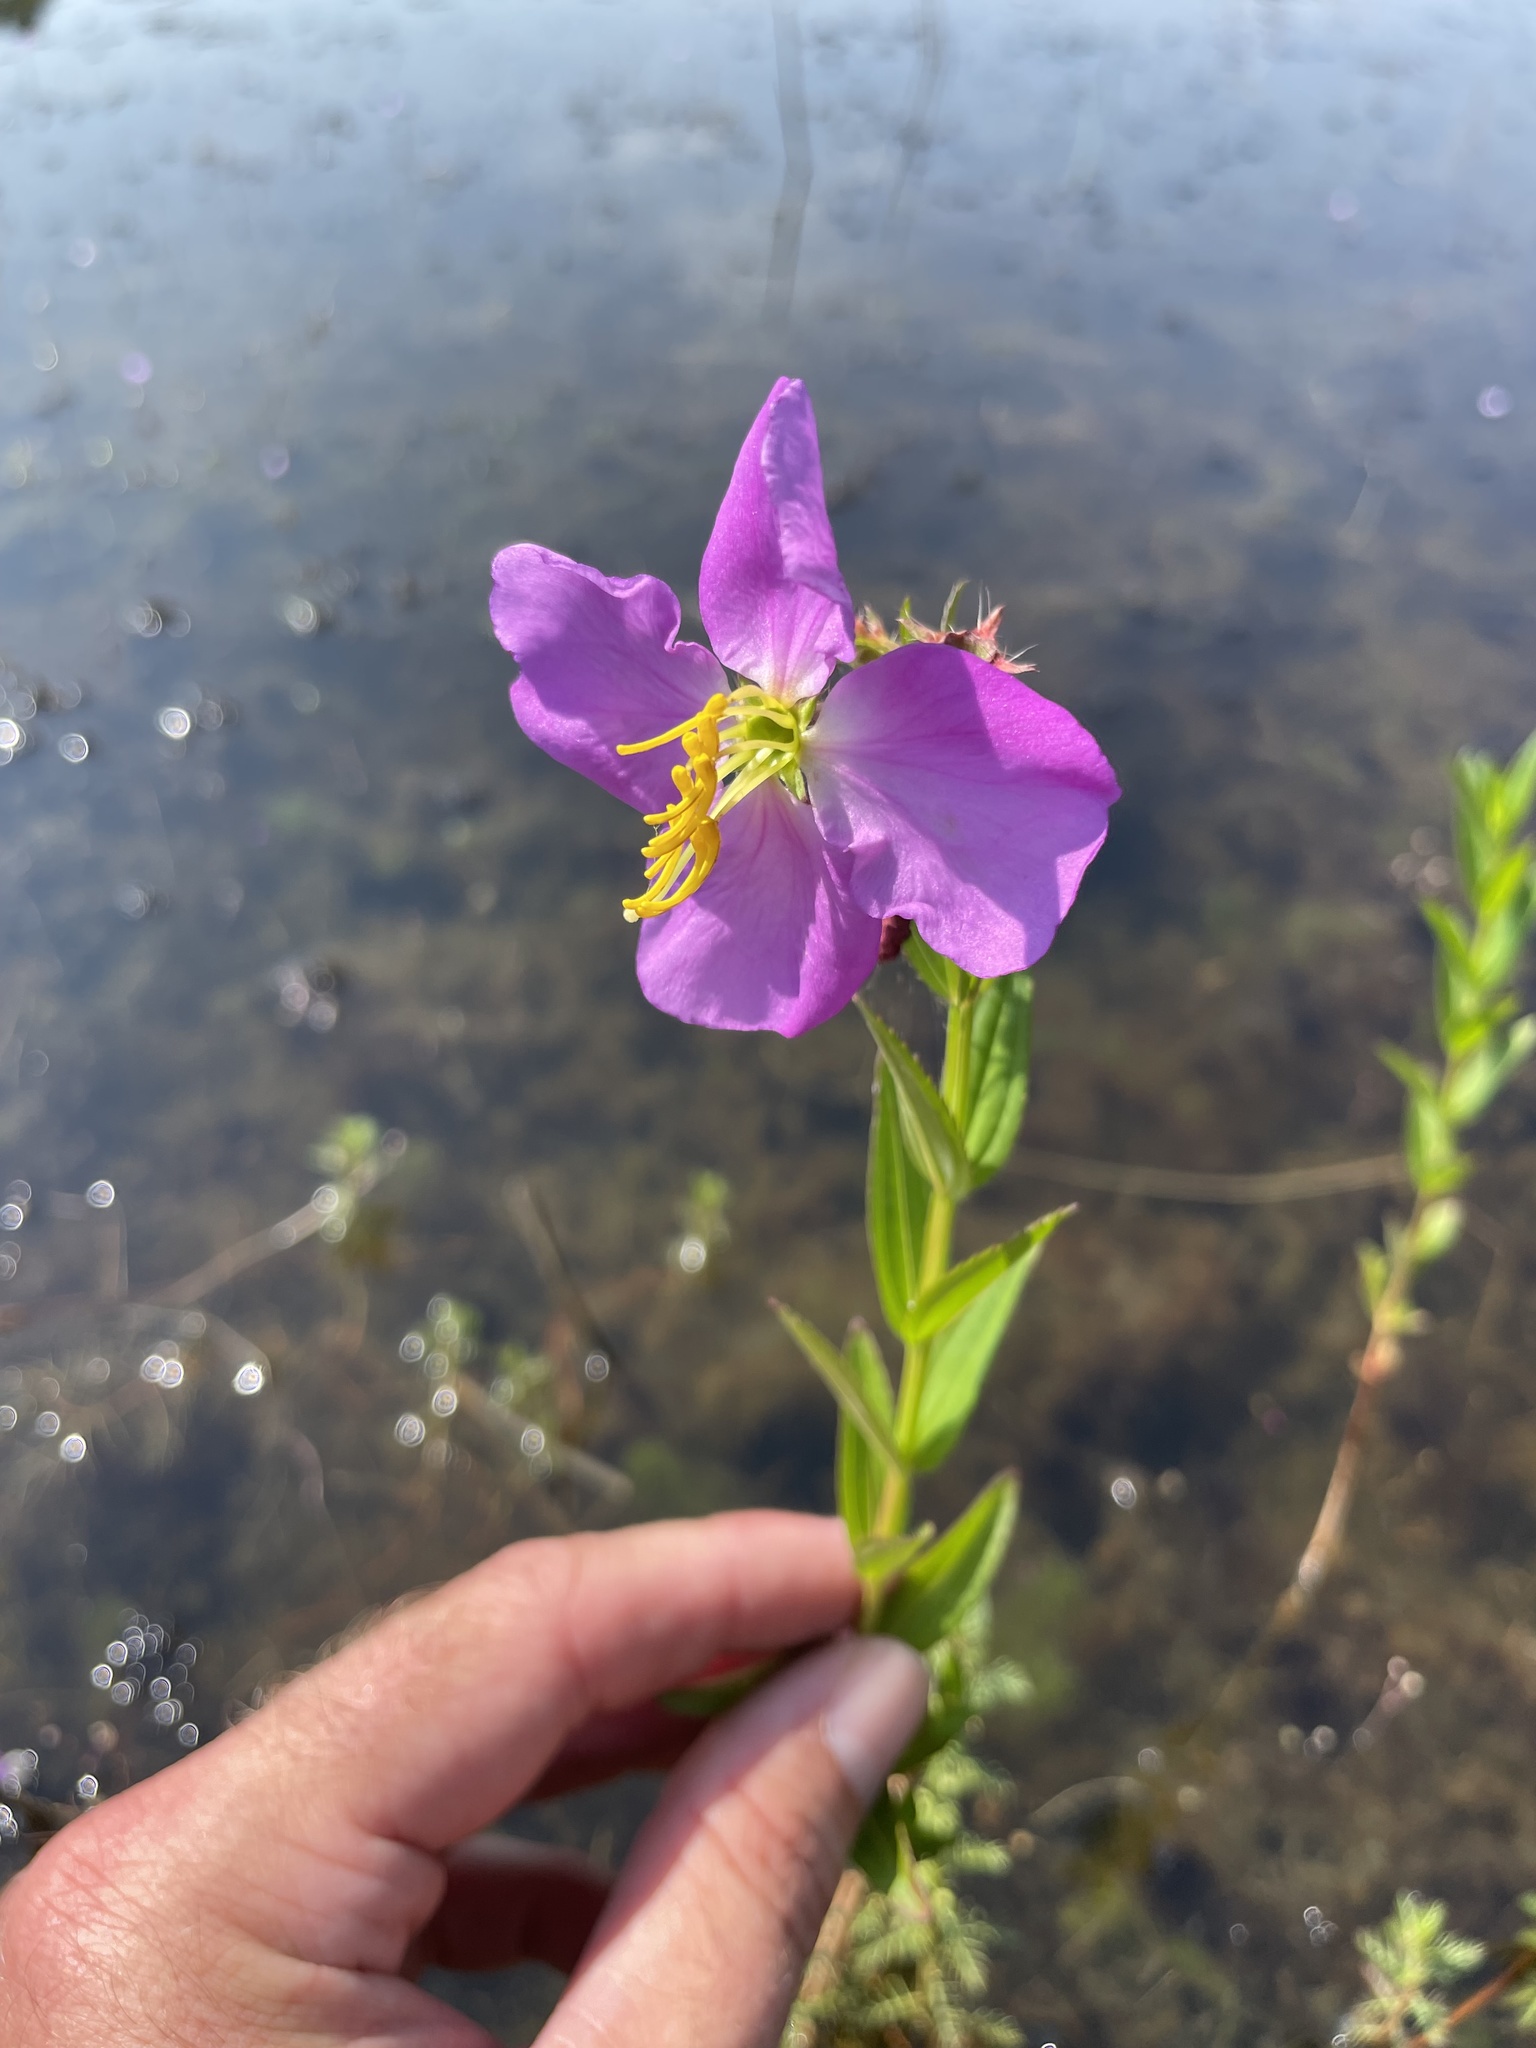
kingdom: Plantae
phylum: Tracheophyta
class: Magnoliopsida
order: Myrtales
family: Melastomataceae
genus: Rhexia
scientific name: Rhexia aristosa
